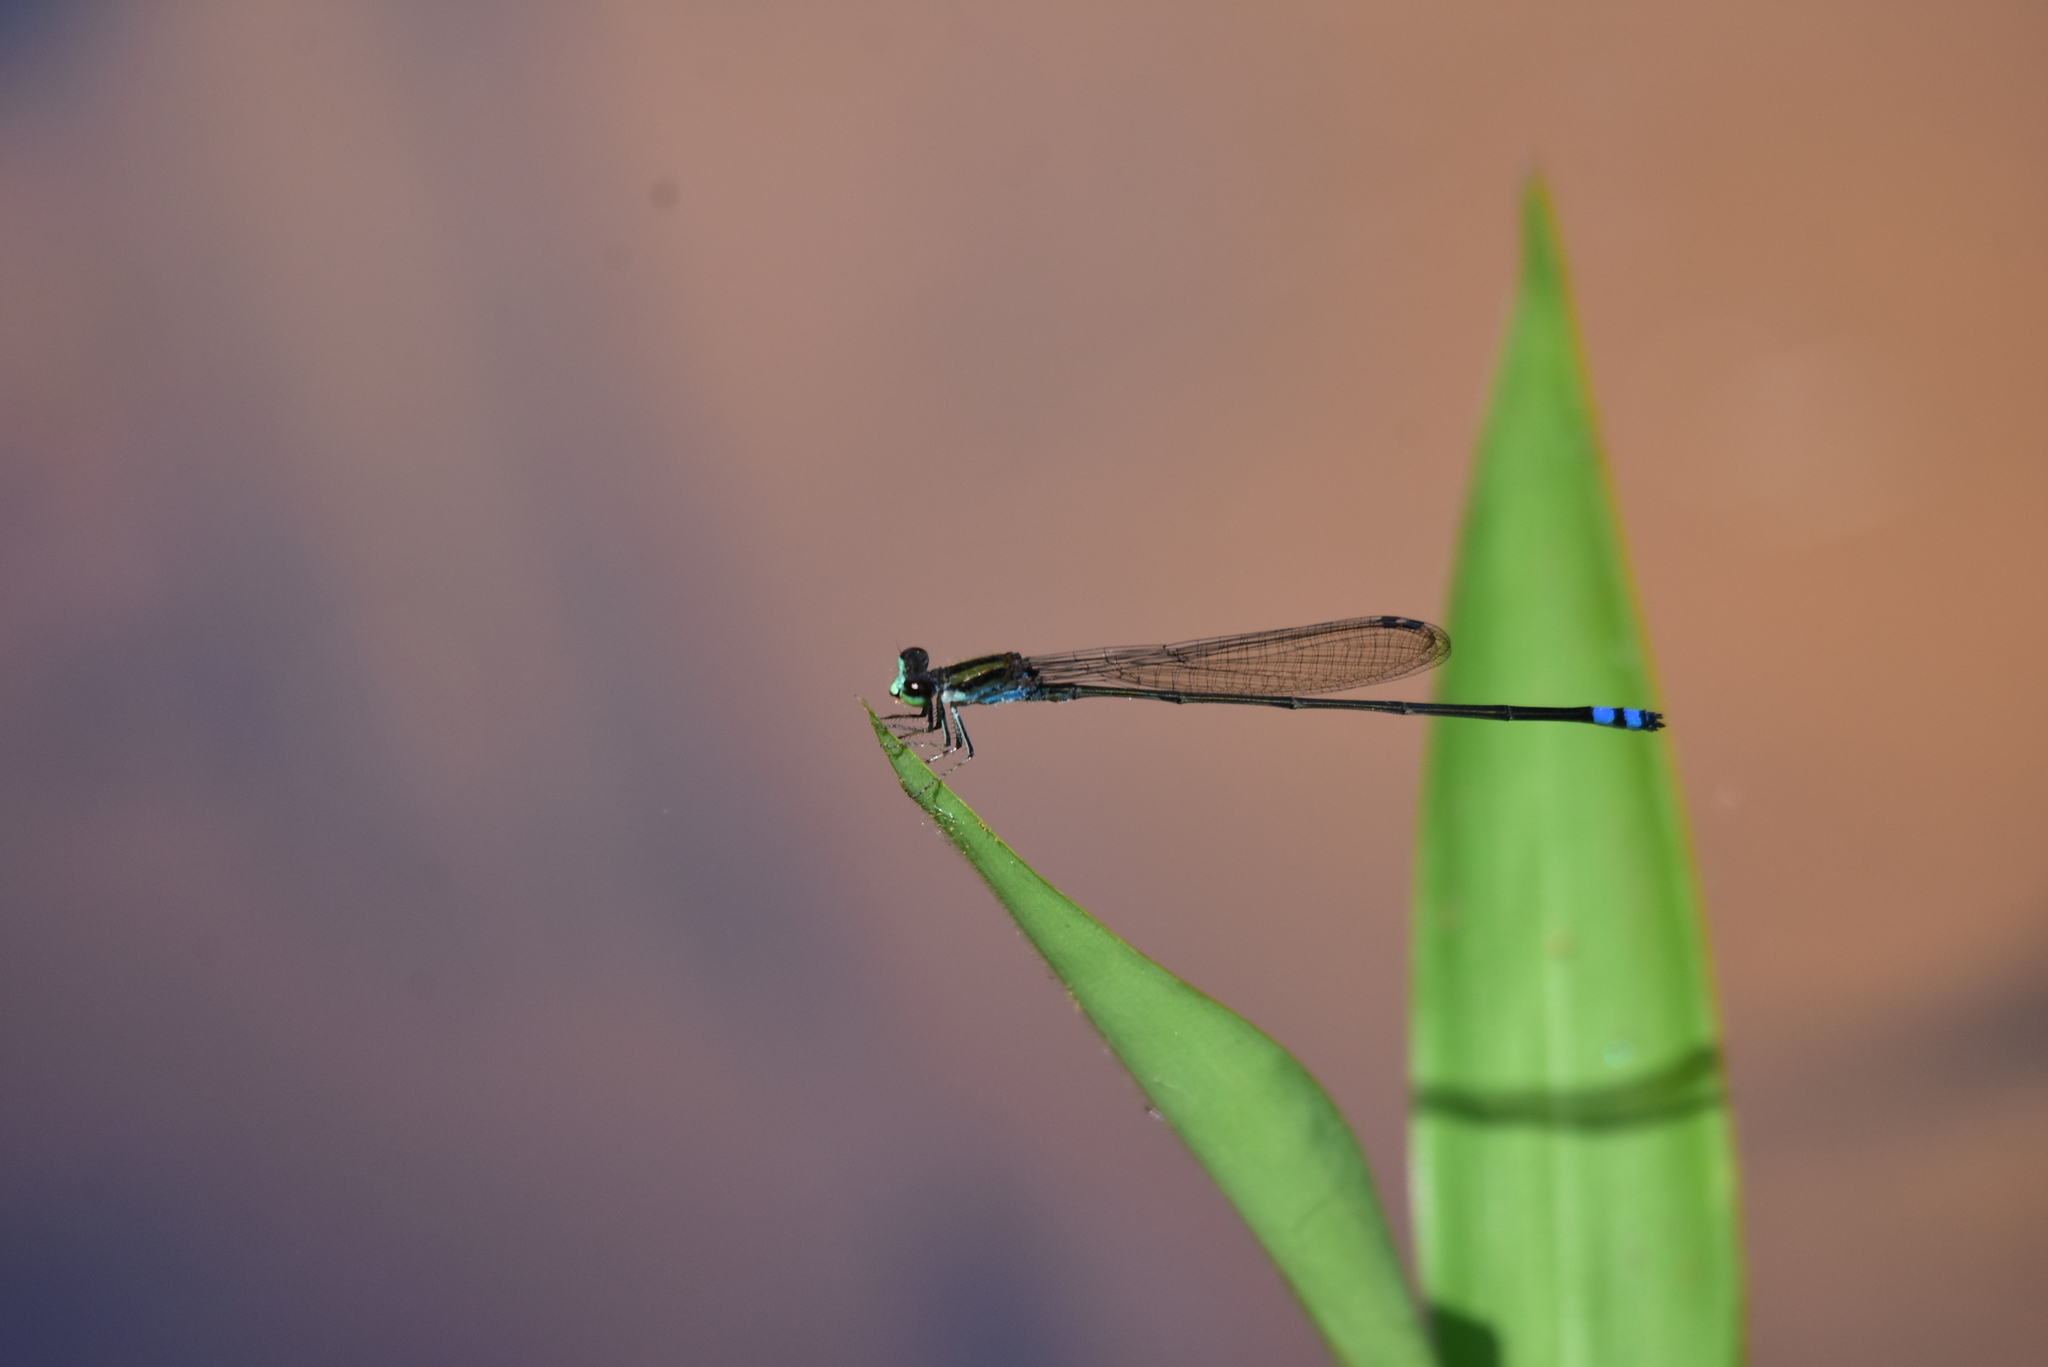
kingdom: Animalia
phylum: Arthropoda
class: Insecta
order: Odonata
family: Coenagrionidae
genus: Pseudagrion
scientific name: Pseudagrion indicum
